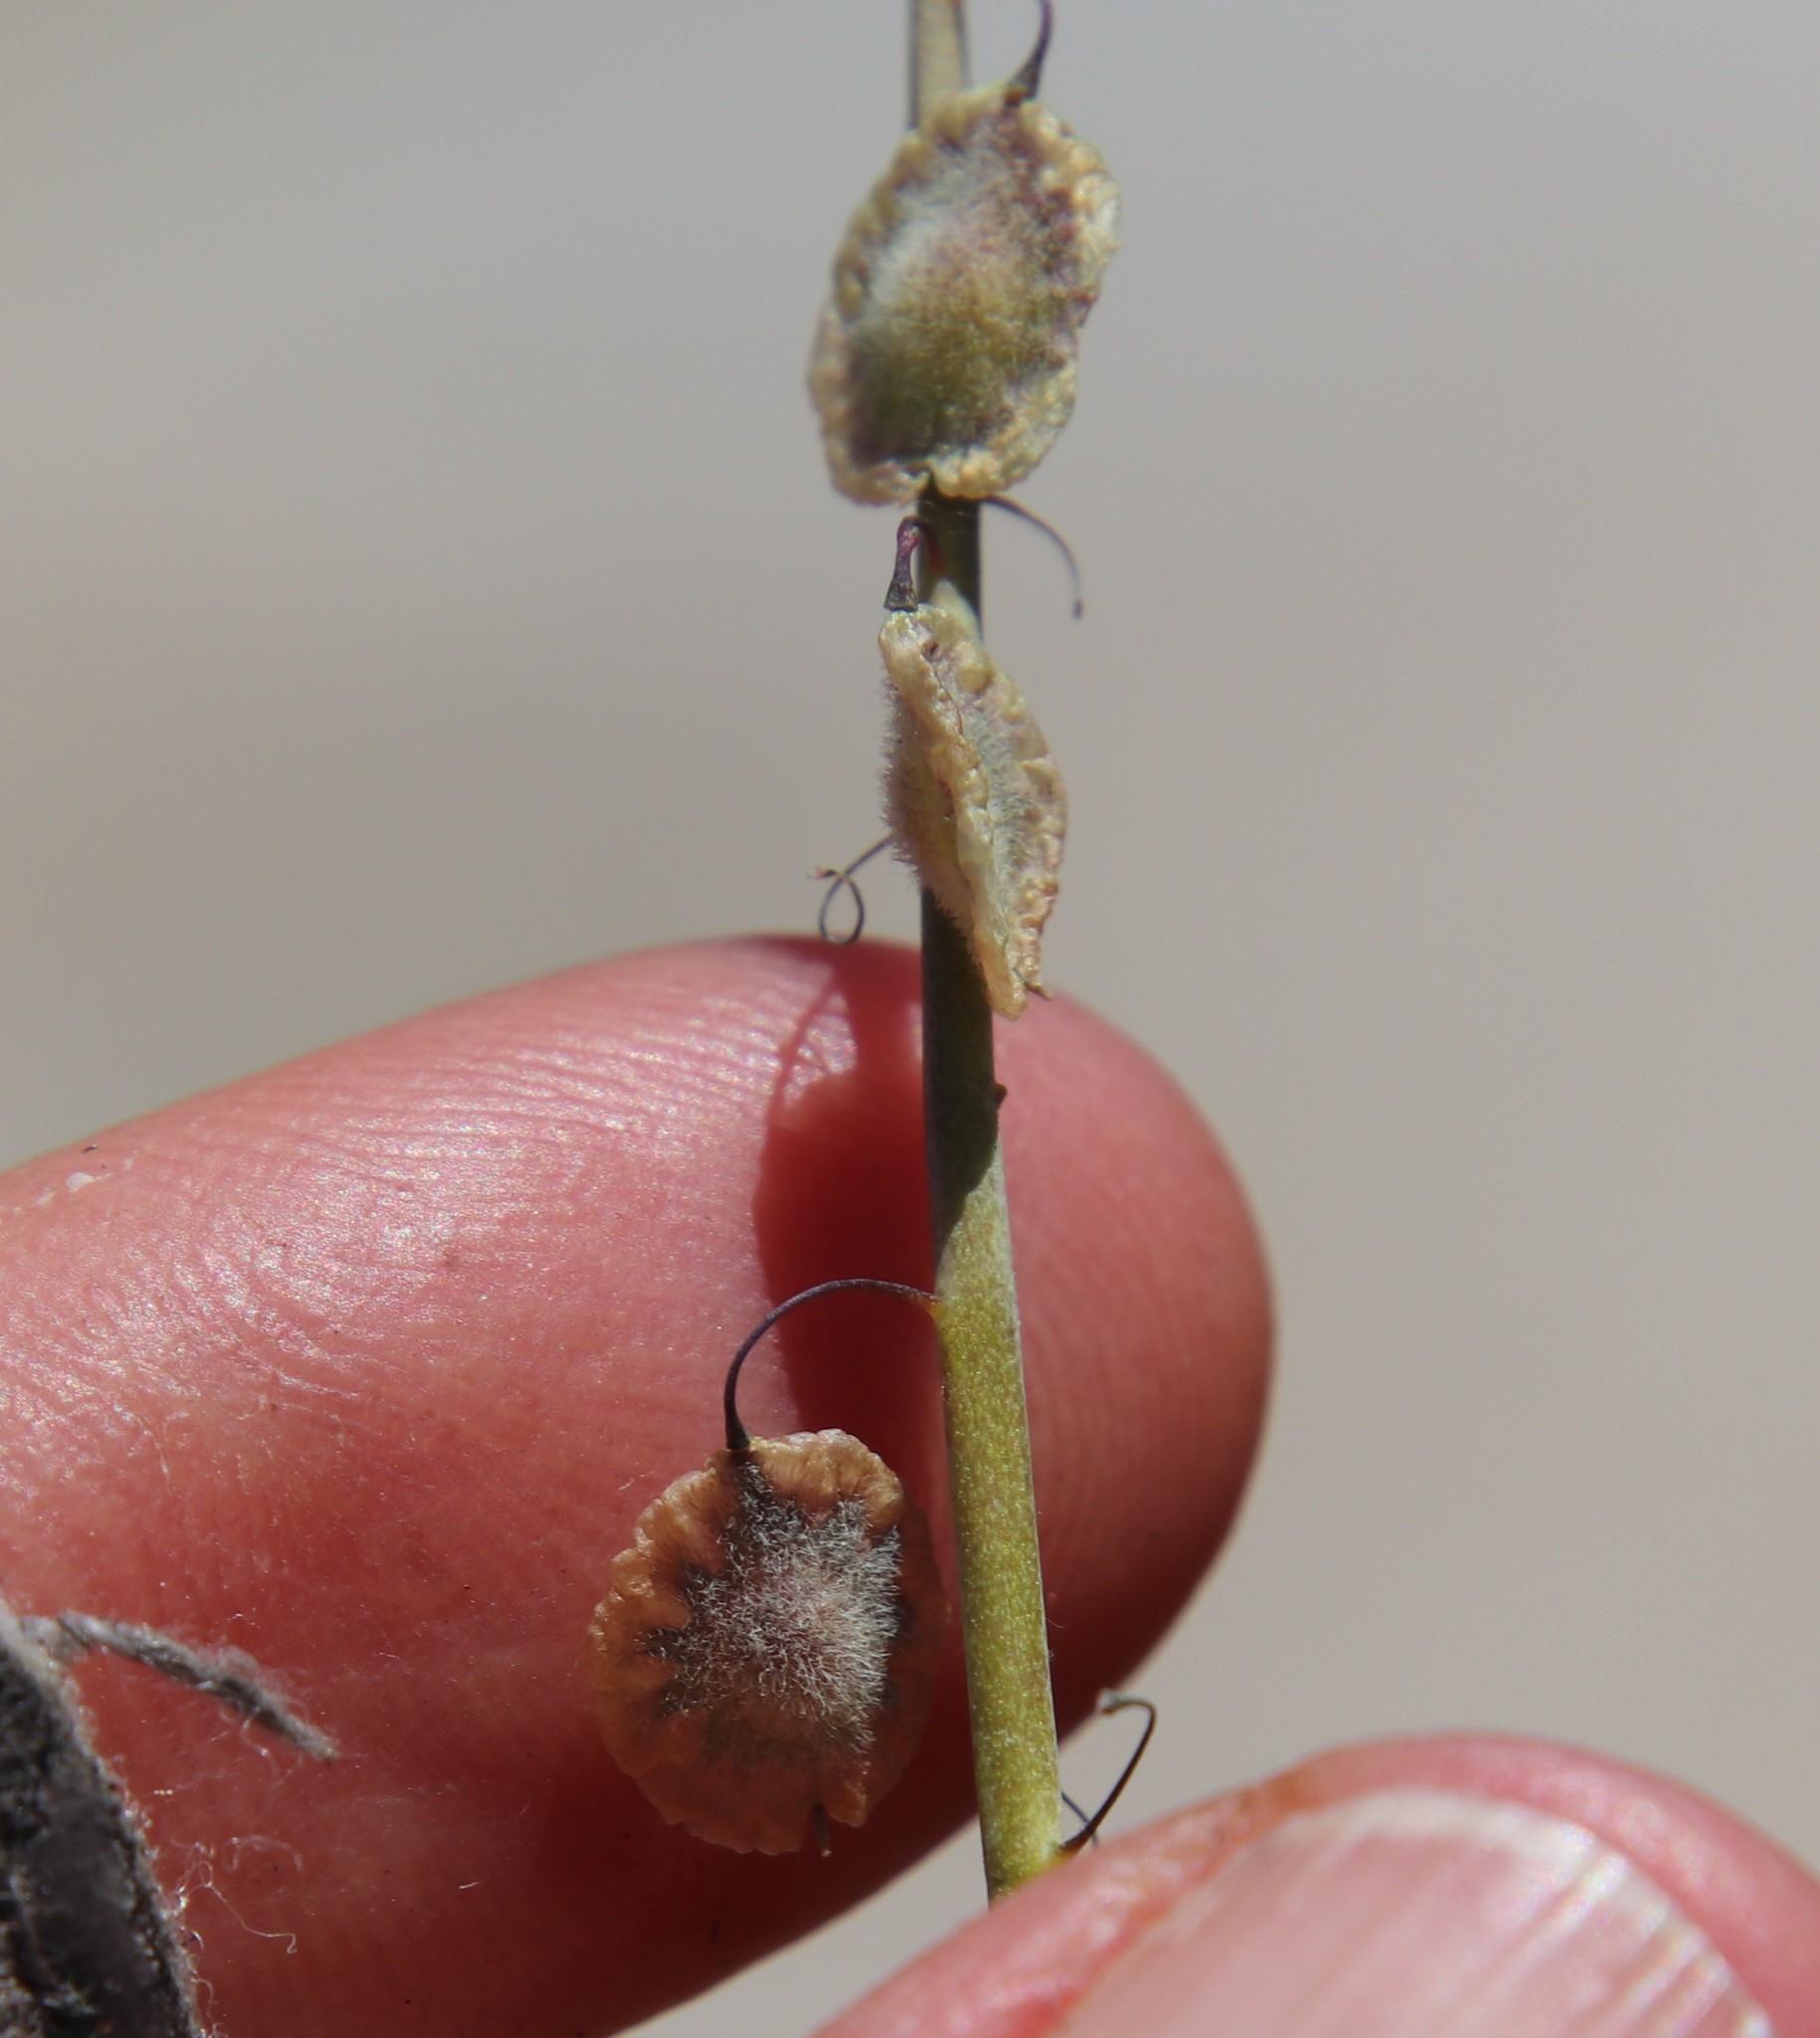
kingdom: Plantae
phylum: Tracheophyta
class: Magnoliopsida
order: Brassicales
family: Brassicaceae
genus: Thysanocarpus
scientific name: Thysanocarpus curvipes
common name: Sand fringepod
